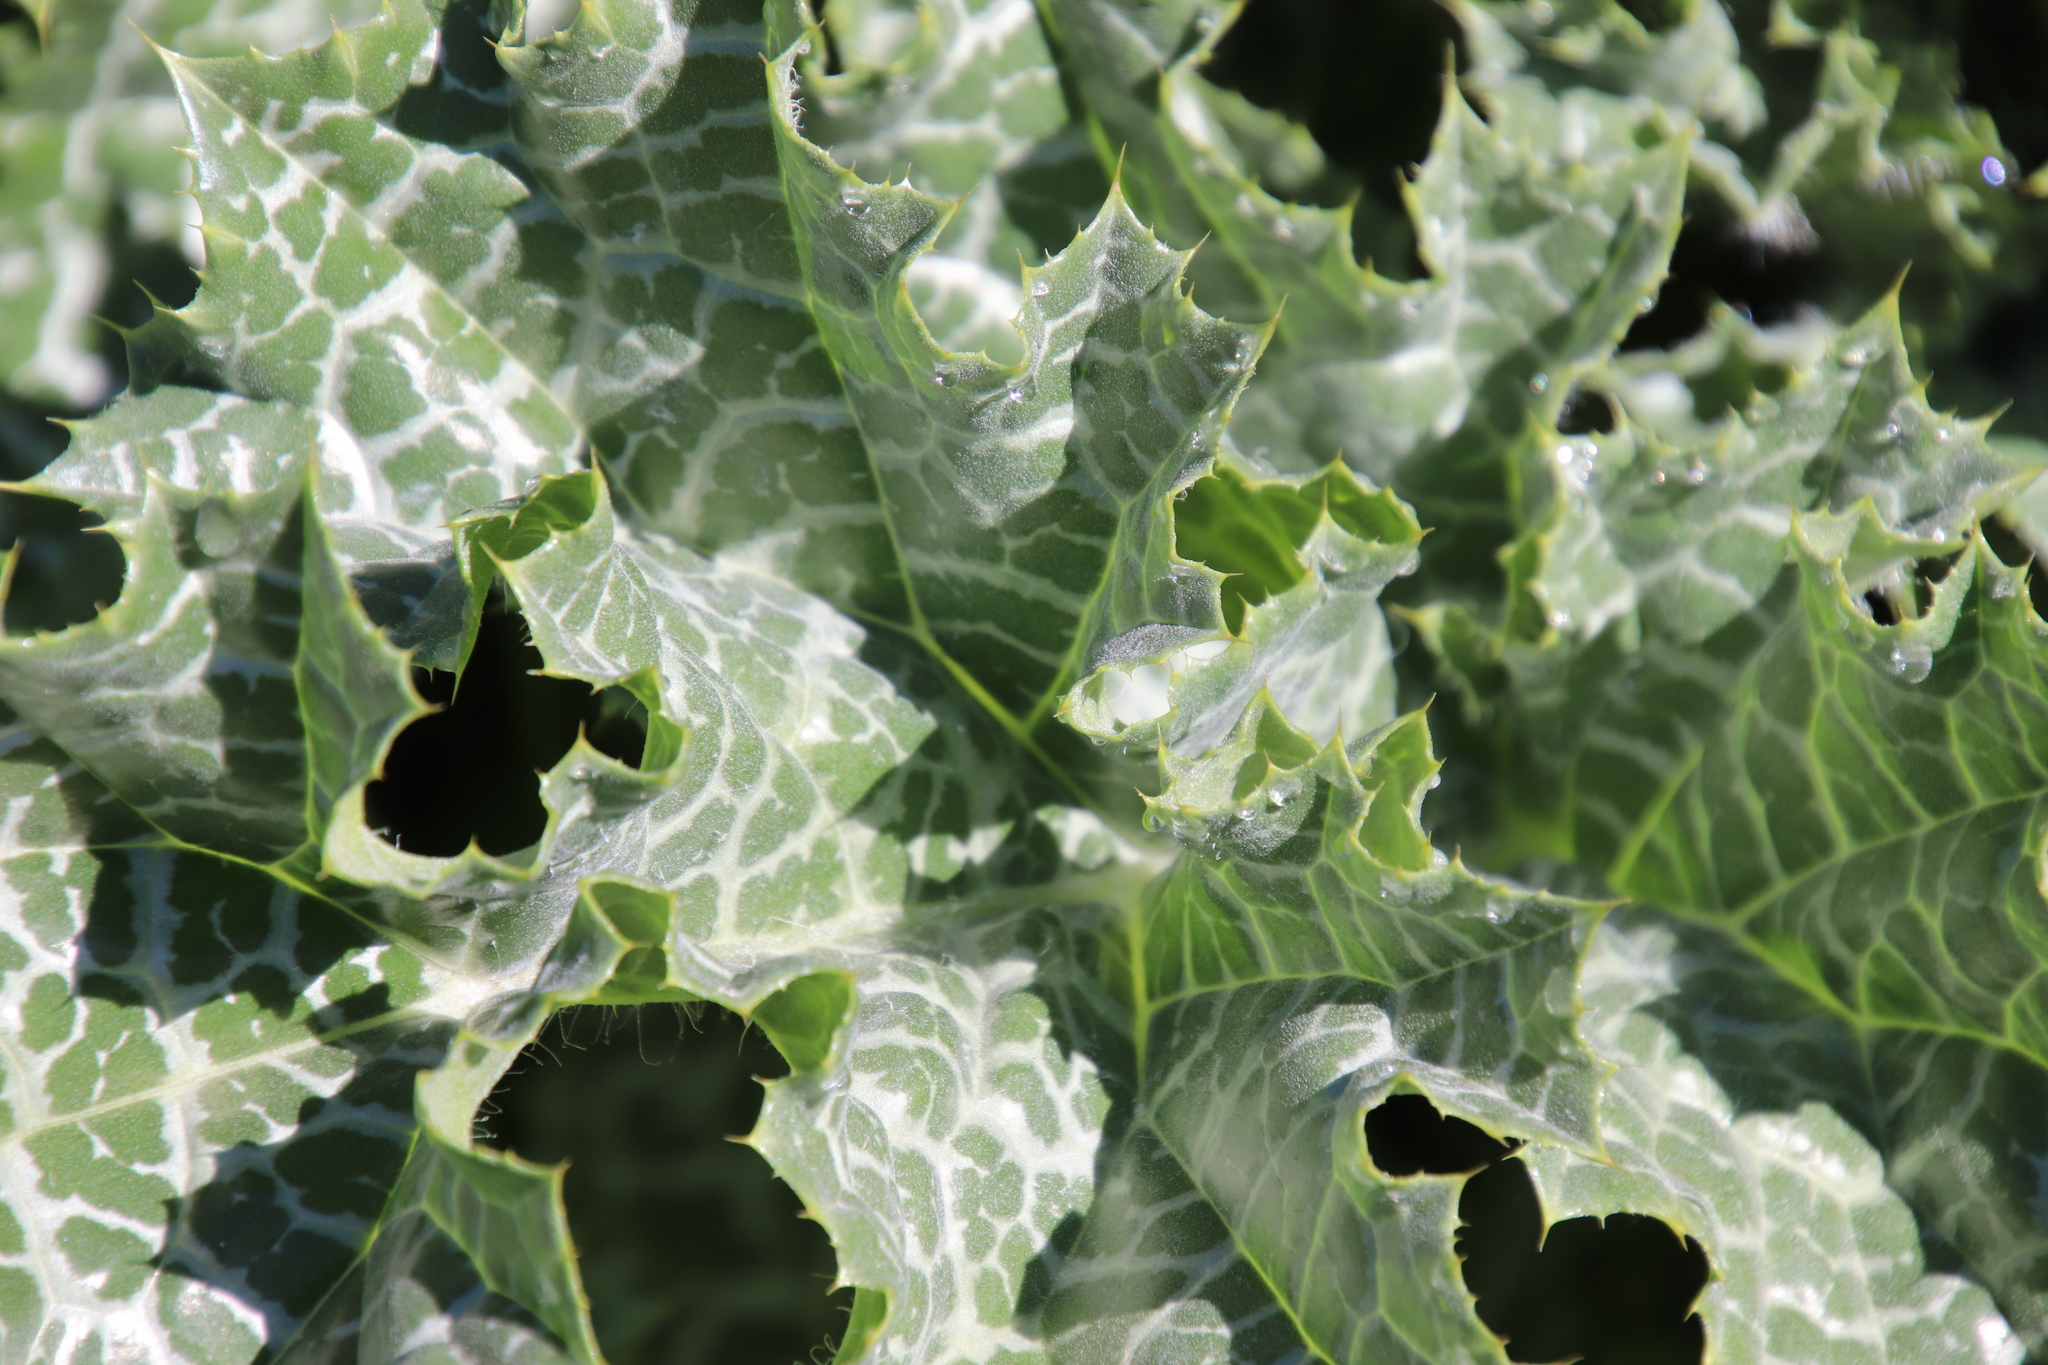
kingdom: Plantae
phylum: Tracheophyta
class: Magnoliopsida
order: Asterales
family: Asteraceae
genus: Silybum
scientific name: Silybum marianum
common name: Milk thistle
